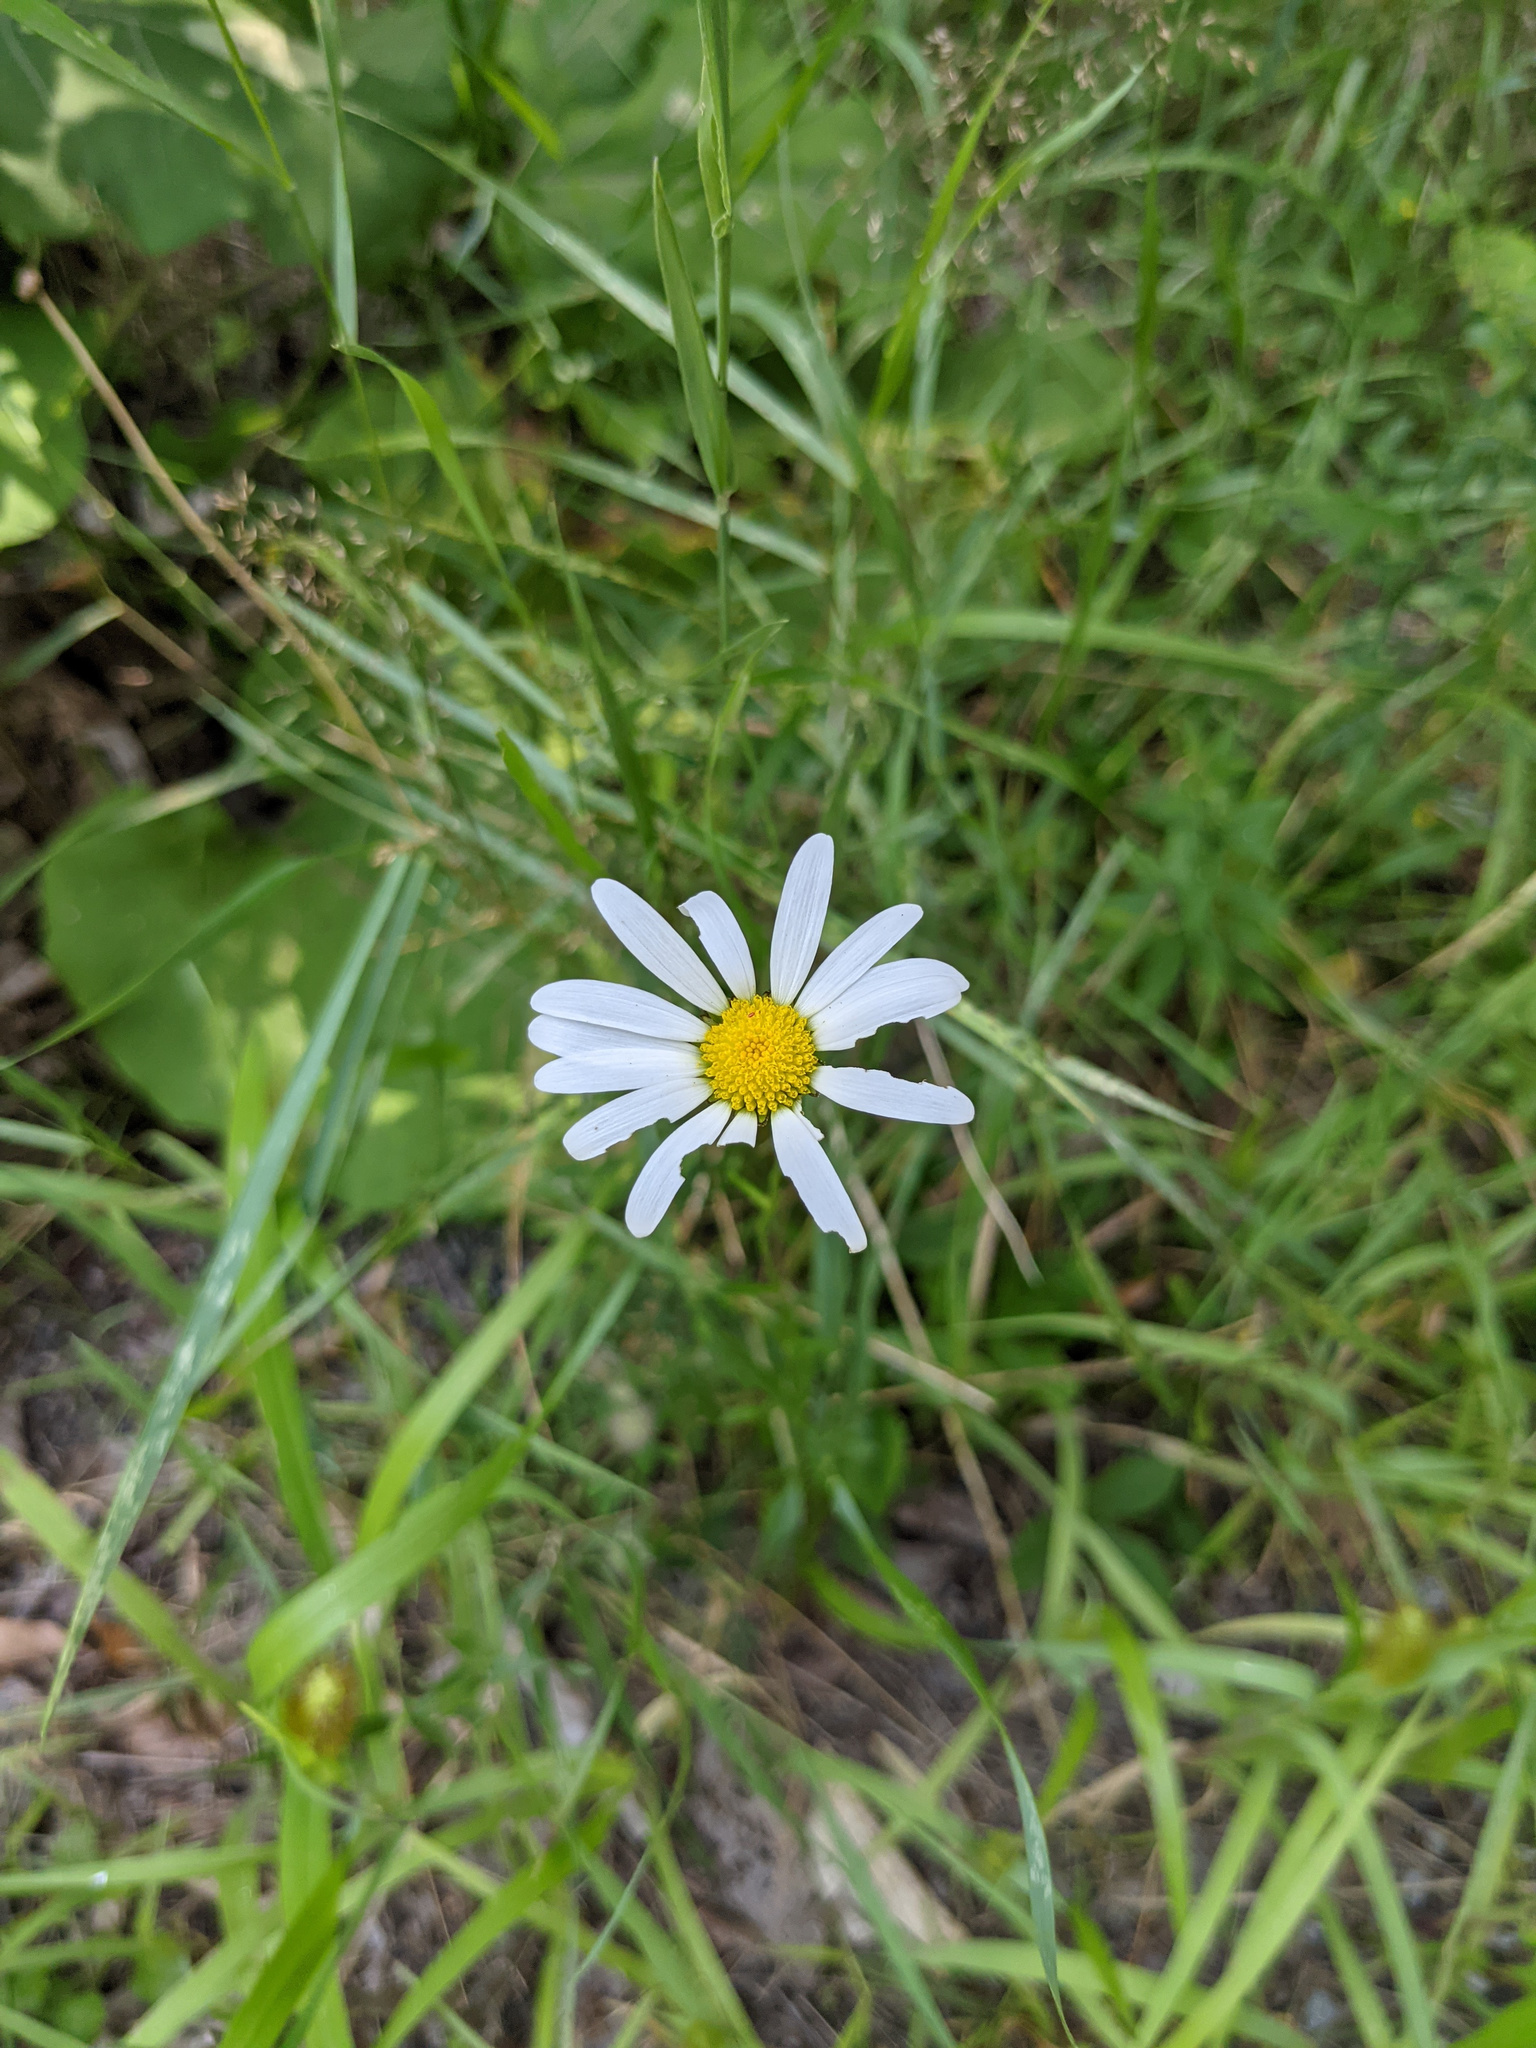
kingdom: Plantae
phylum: Tracheophyta
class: Magnoliopsida
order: Asterales
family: Asteraceae
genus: Leucanthemum
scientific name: Leucanthemum vulgare
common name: Oxeye daisy
